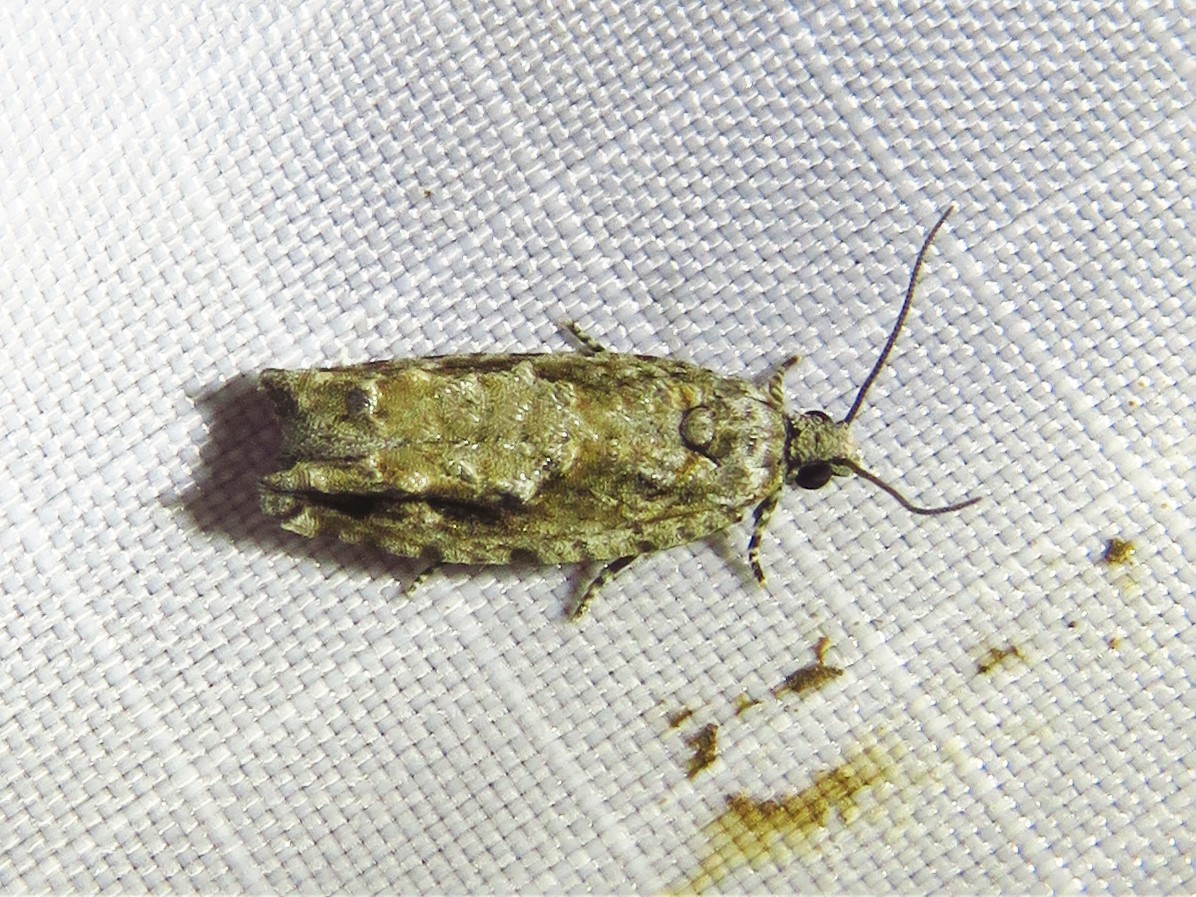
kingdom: Animalia
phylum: Arthropoda
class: Insecta
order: Lepidoptera
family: Tortricidae
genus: Gretchena
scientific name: Gretchena bolliana
